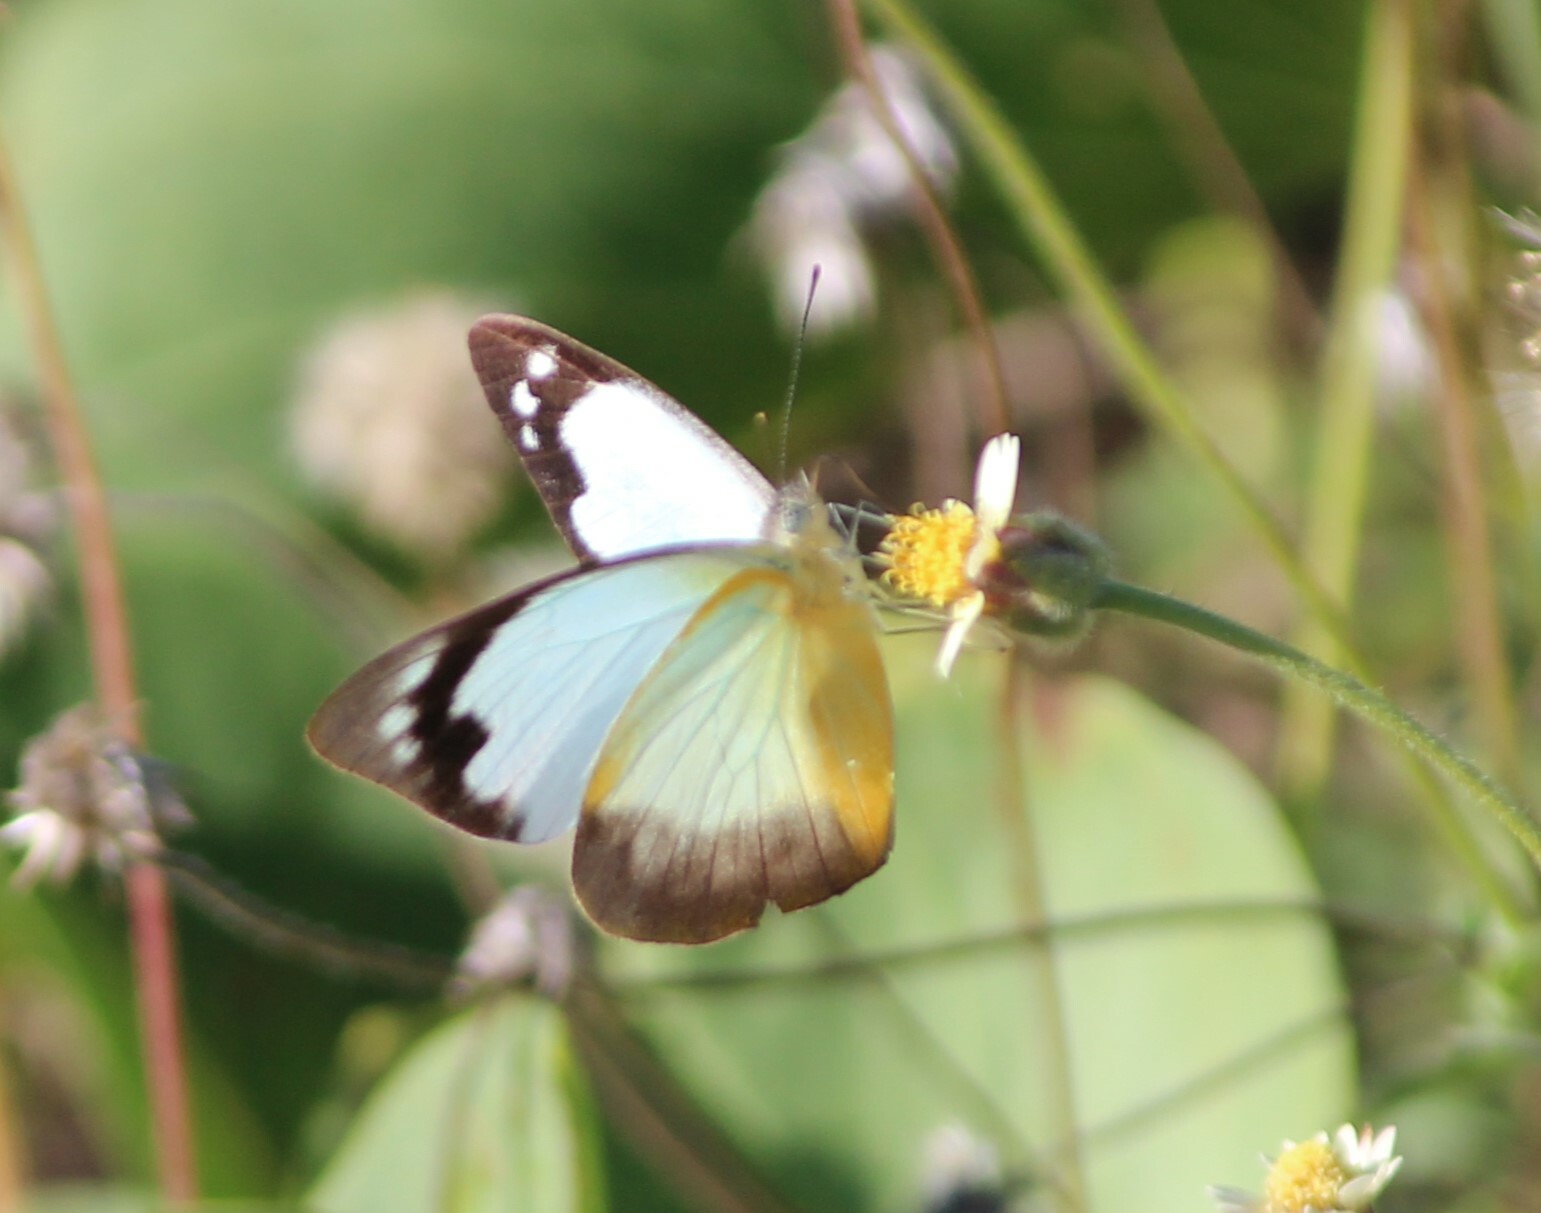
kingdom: Animalia
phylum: Arthropoda
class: Insecta
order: Lepidoptera
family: Pieridae
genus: Appias
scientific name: Appias paulina
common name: Ceylon lesser albatross
